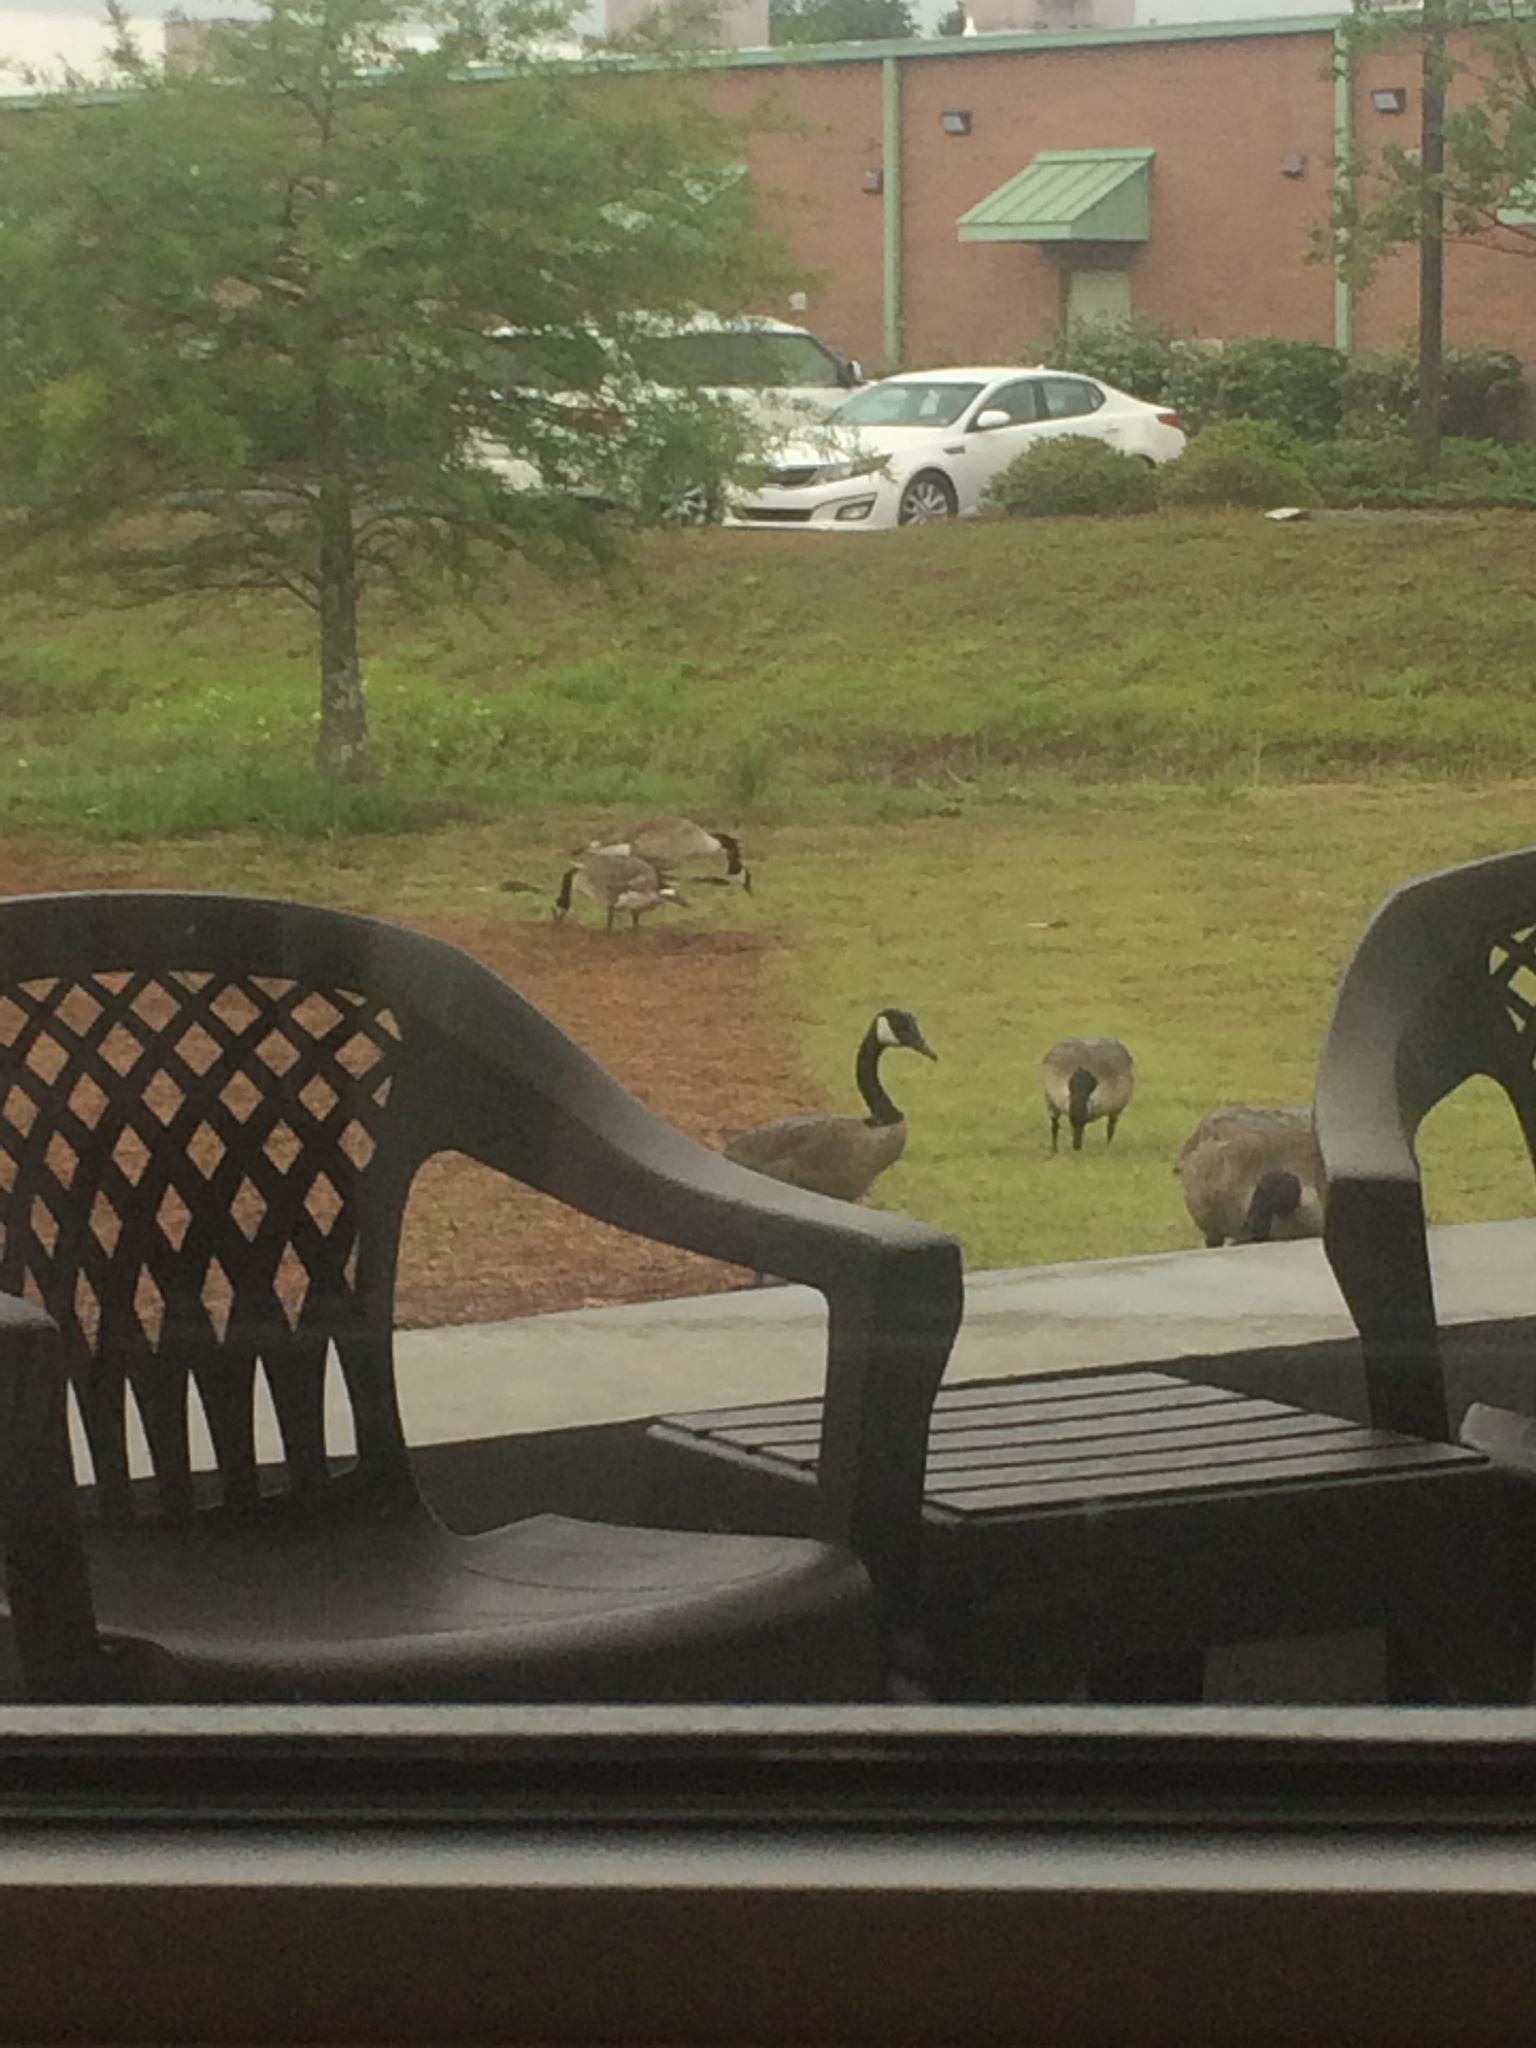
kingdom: Animalia
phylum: Chordata
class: Aves
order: Anseriformes
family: Anatidae
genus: Branta
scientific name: Branta canadensis
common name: Canada goose
